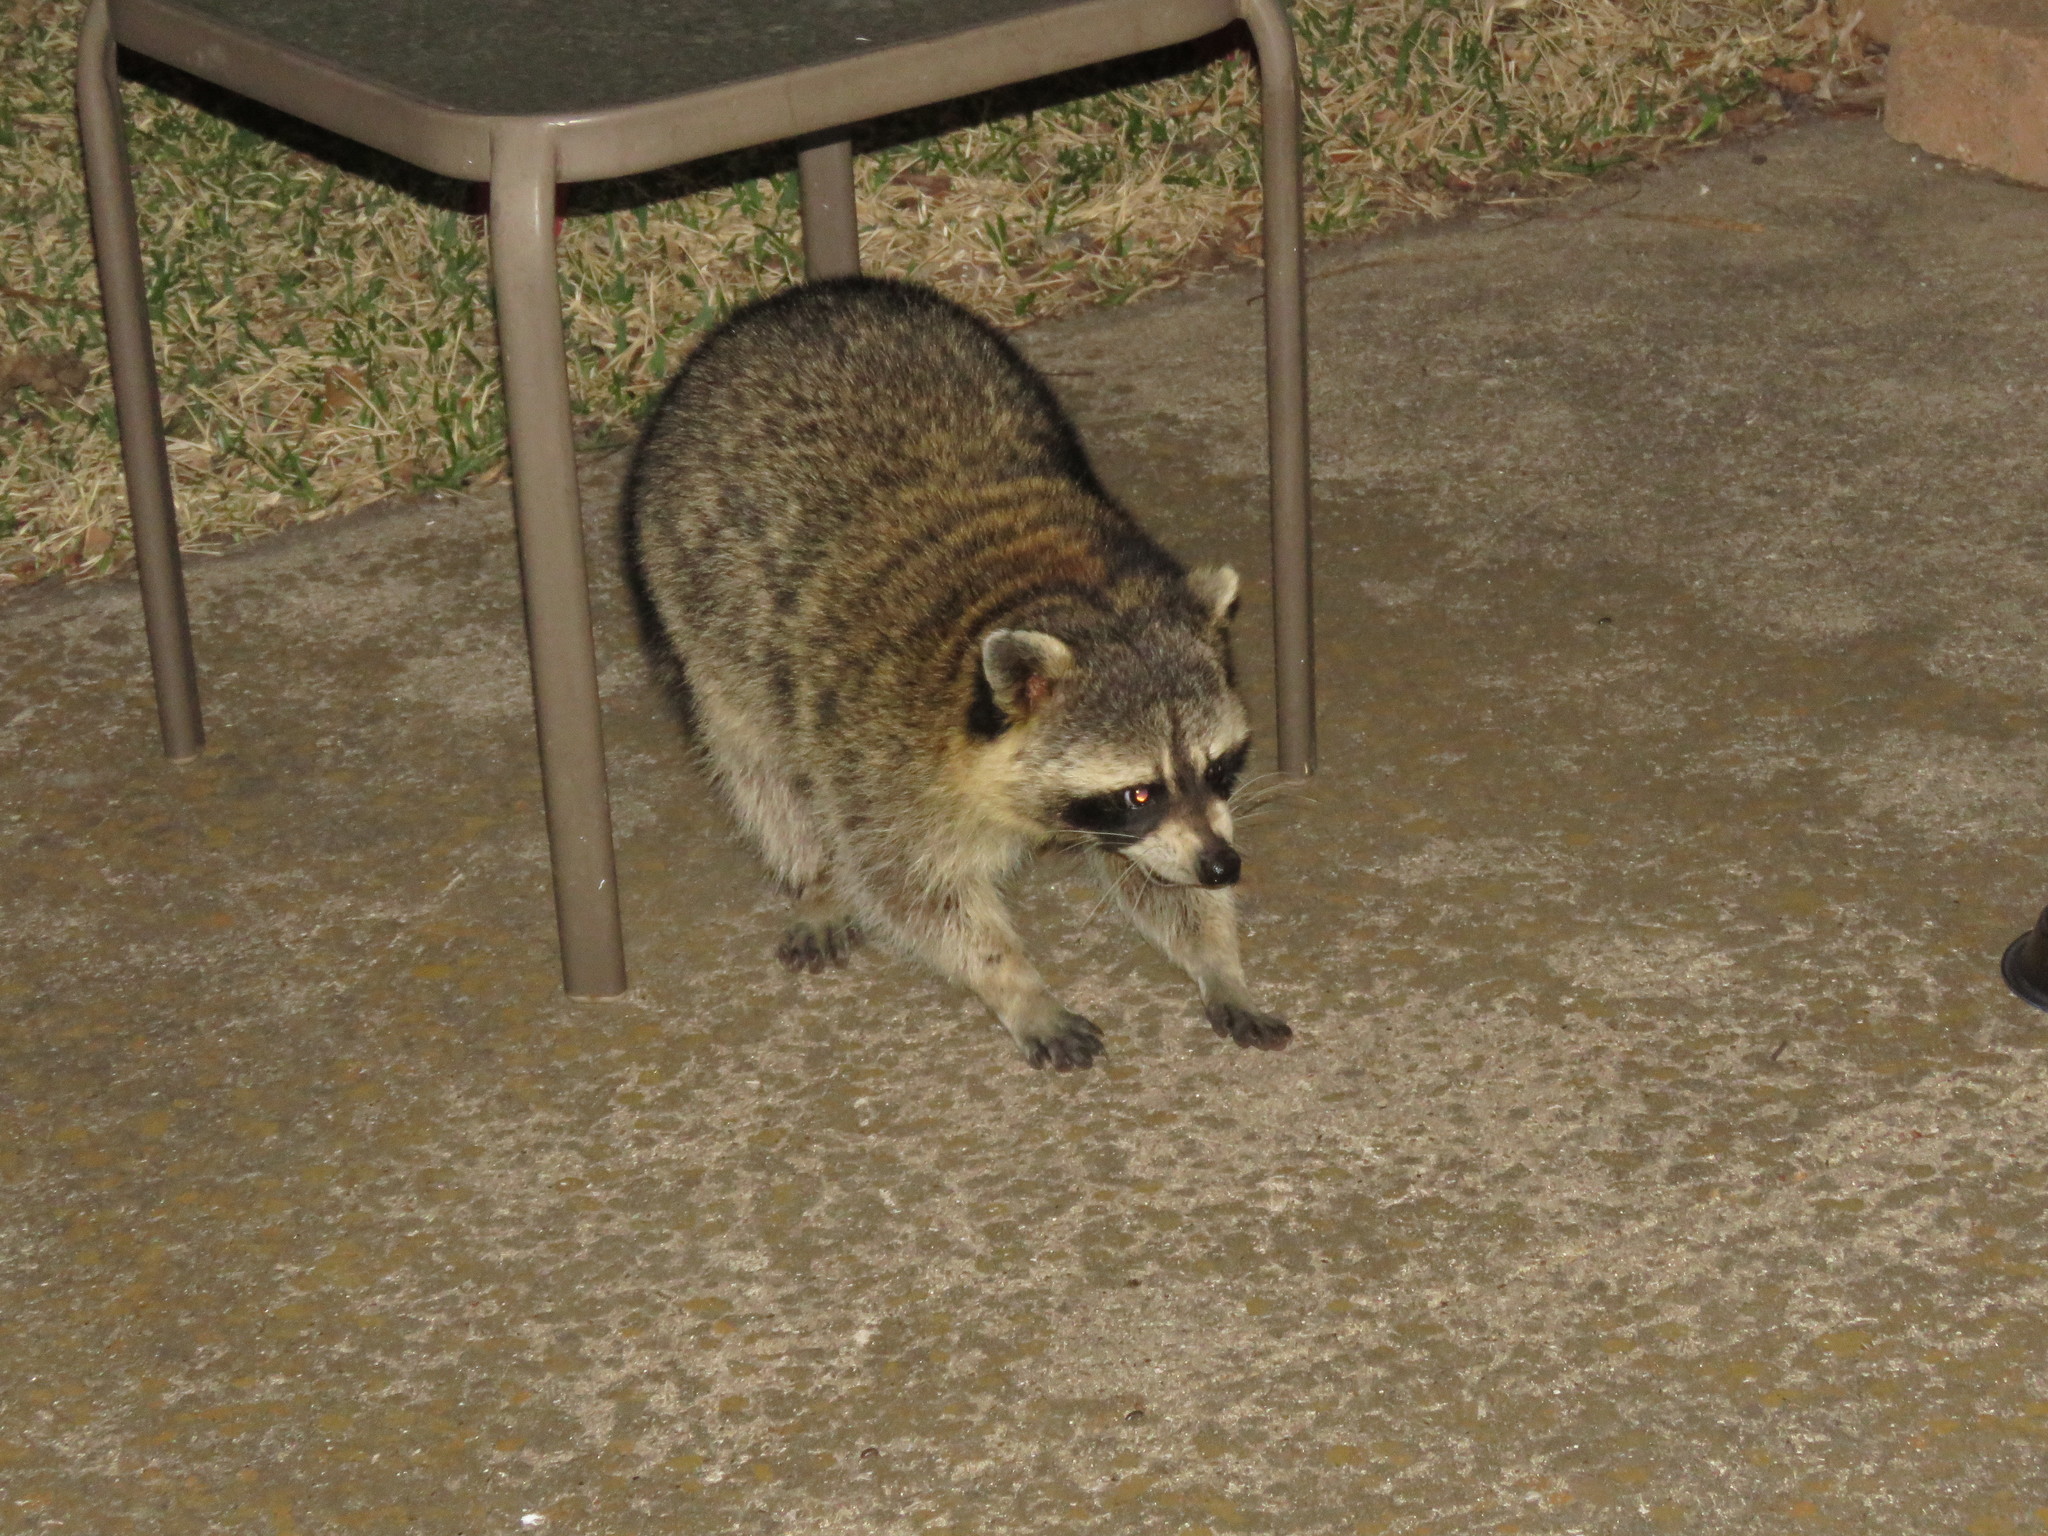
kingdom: Animalia
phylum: Chordata
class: Mammalia
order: Carnivora
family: Procyonidae
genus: Procyon
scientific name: Procyon lotor
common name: Raccoon
